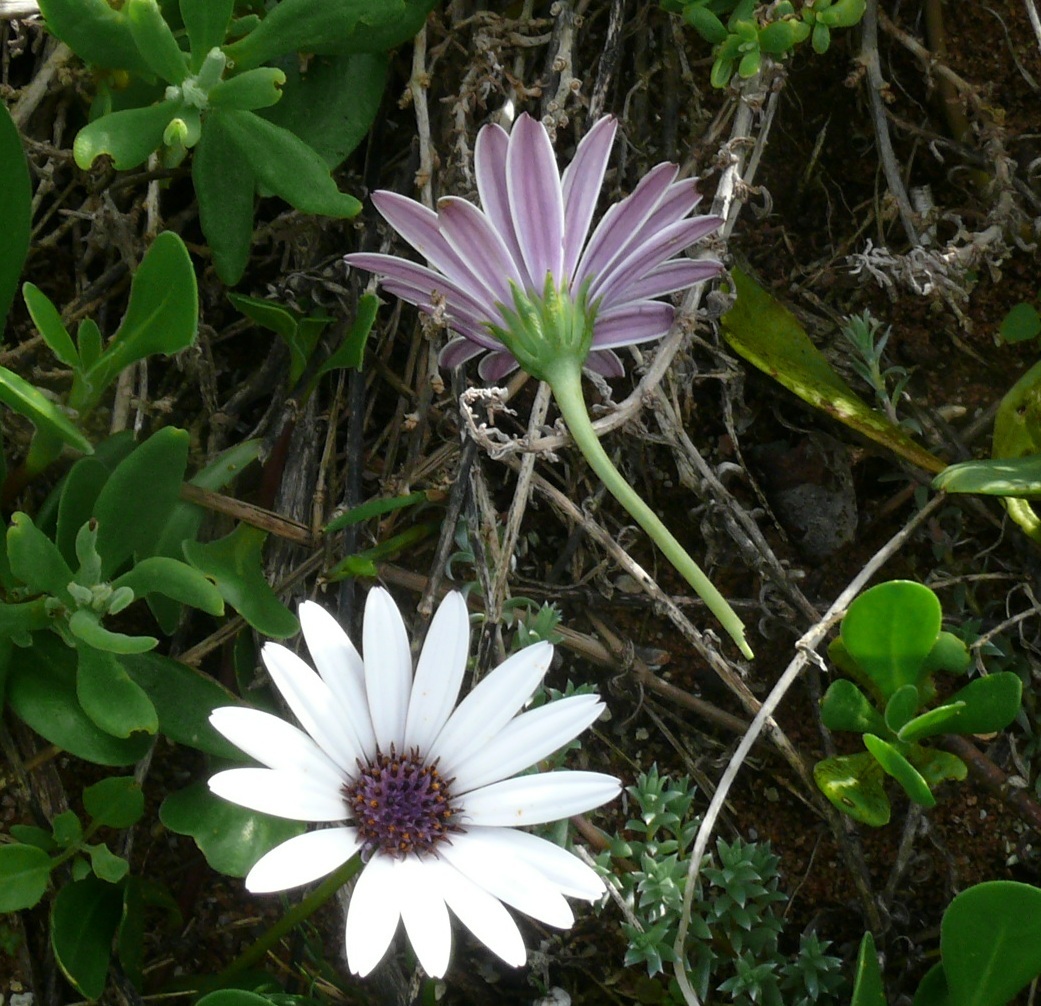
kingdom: Plantae
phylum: Tracheophyta
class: Magnoliopsida
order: Asterales
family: Asteraceae
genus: Dimorphotheca
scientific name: Dimorphotheca fruticosa
